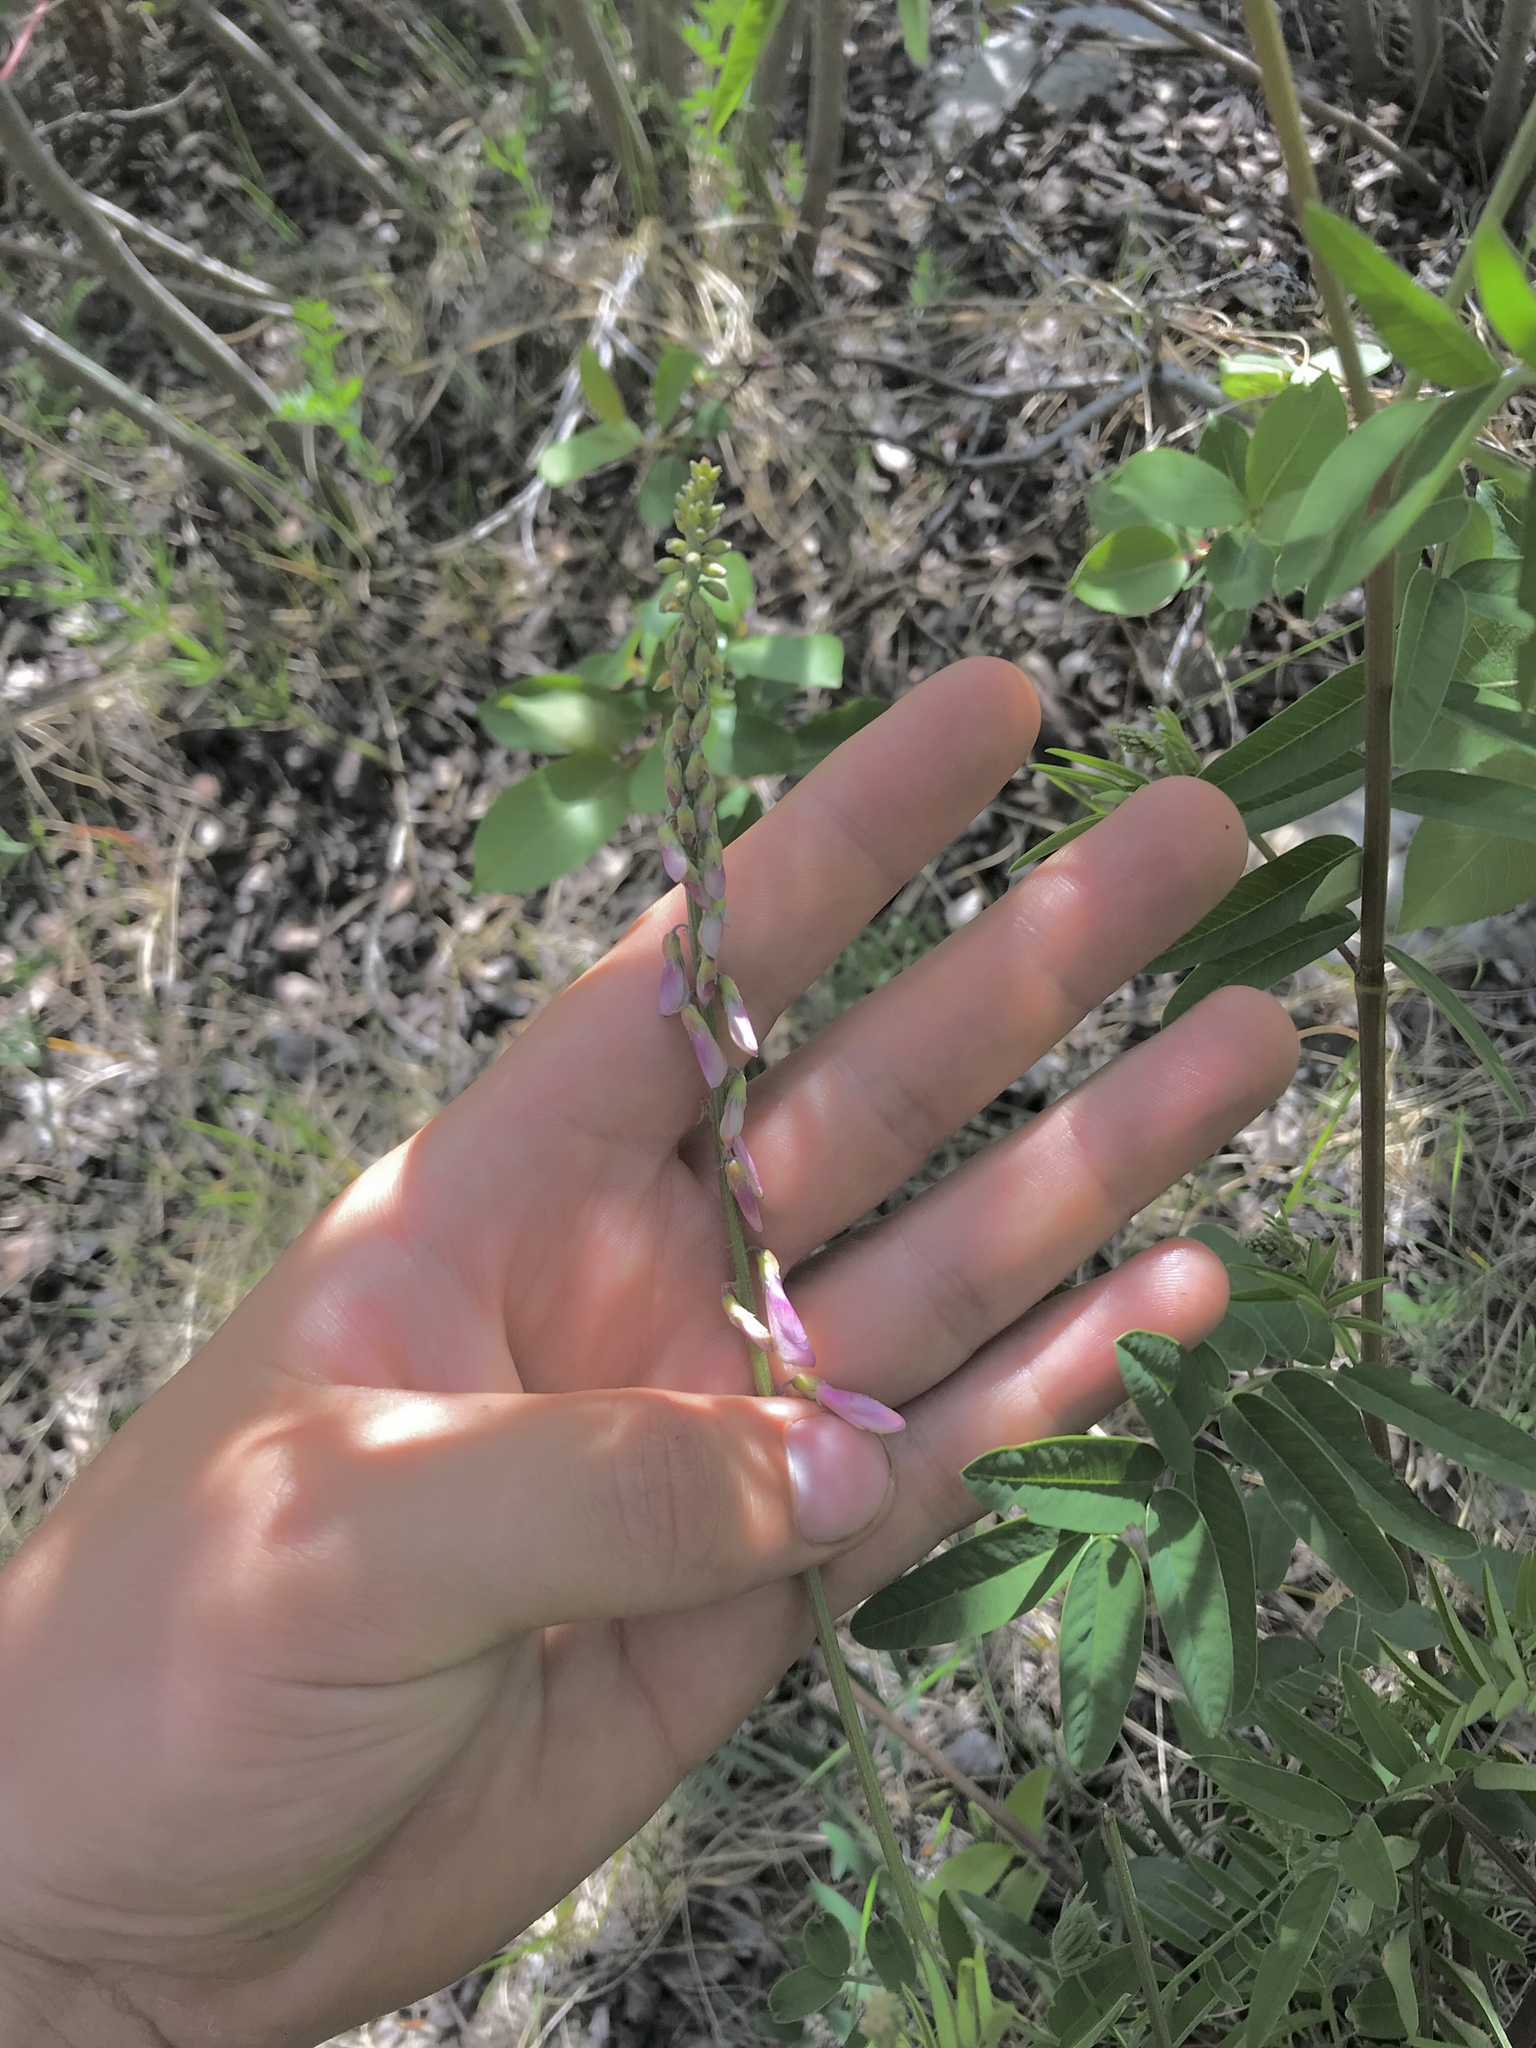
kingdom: Plantae
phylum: Tracheophyta
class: Magnoliopsida
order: Fabales
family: Fabaceae
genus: Hedysarum
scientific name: Hedysarum alpinum
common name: Alpine sweet-vetch
